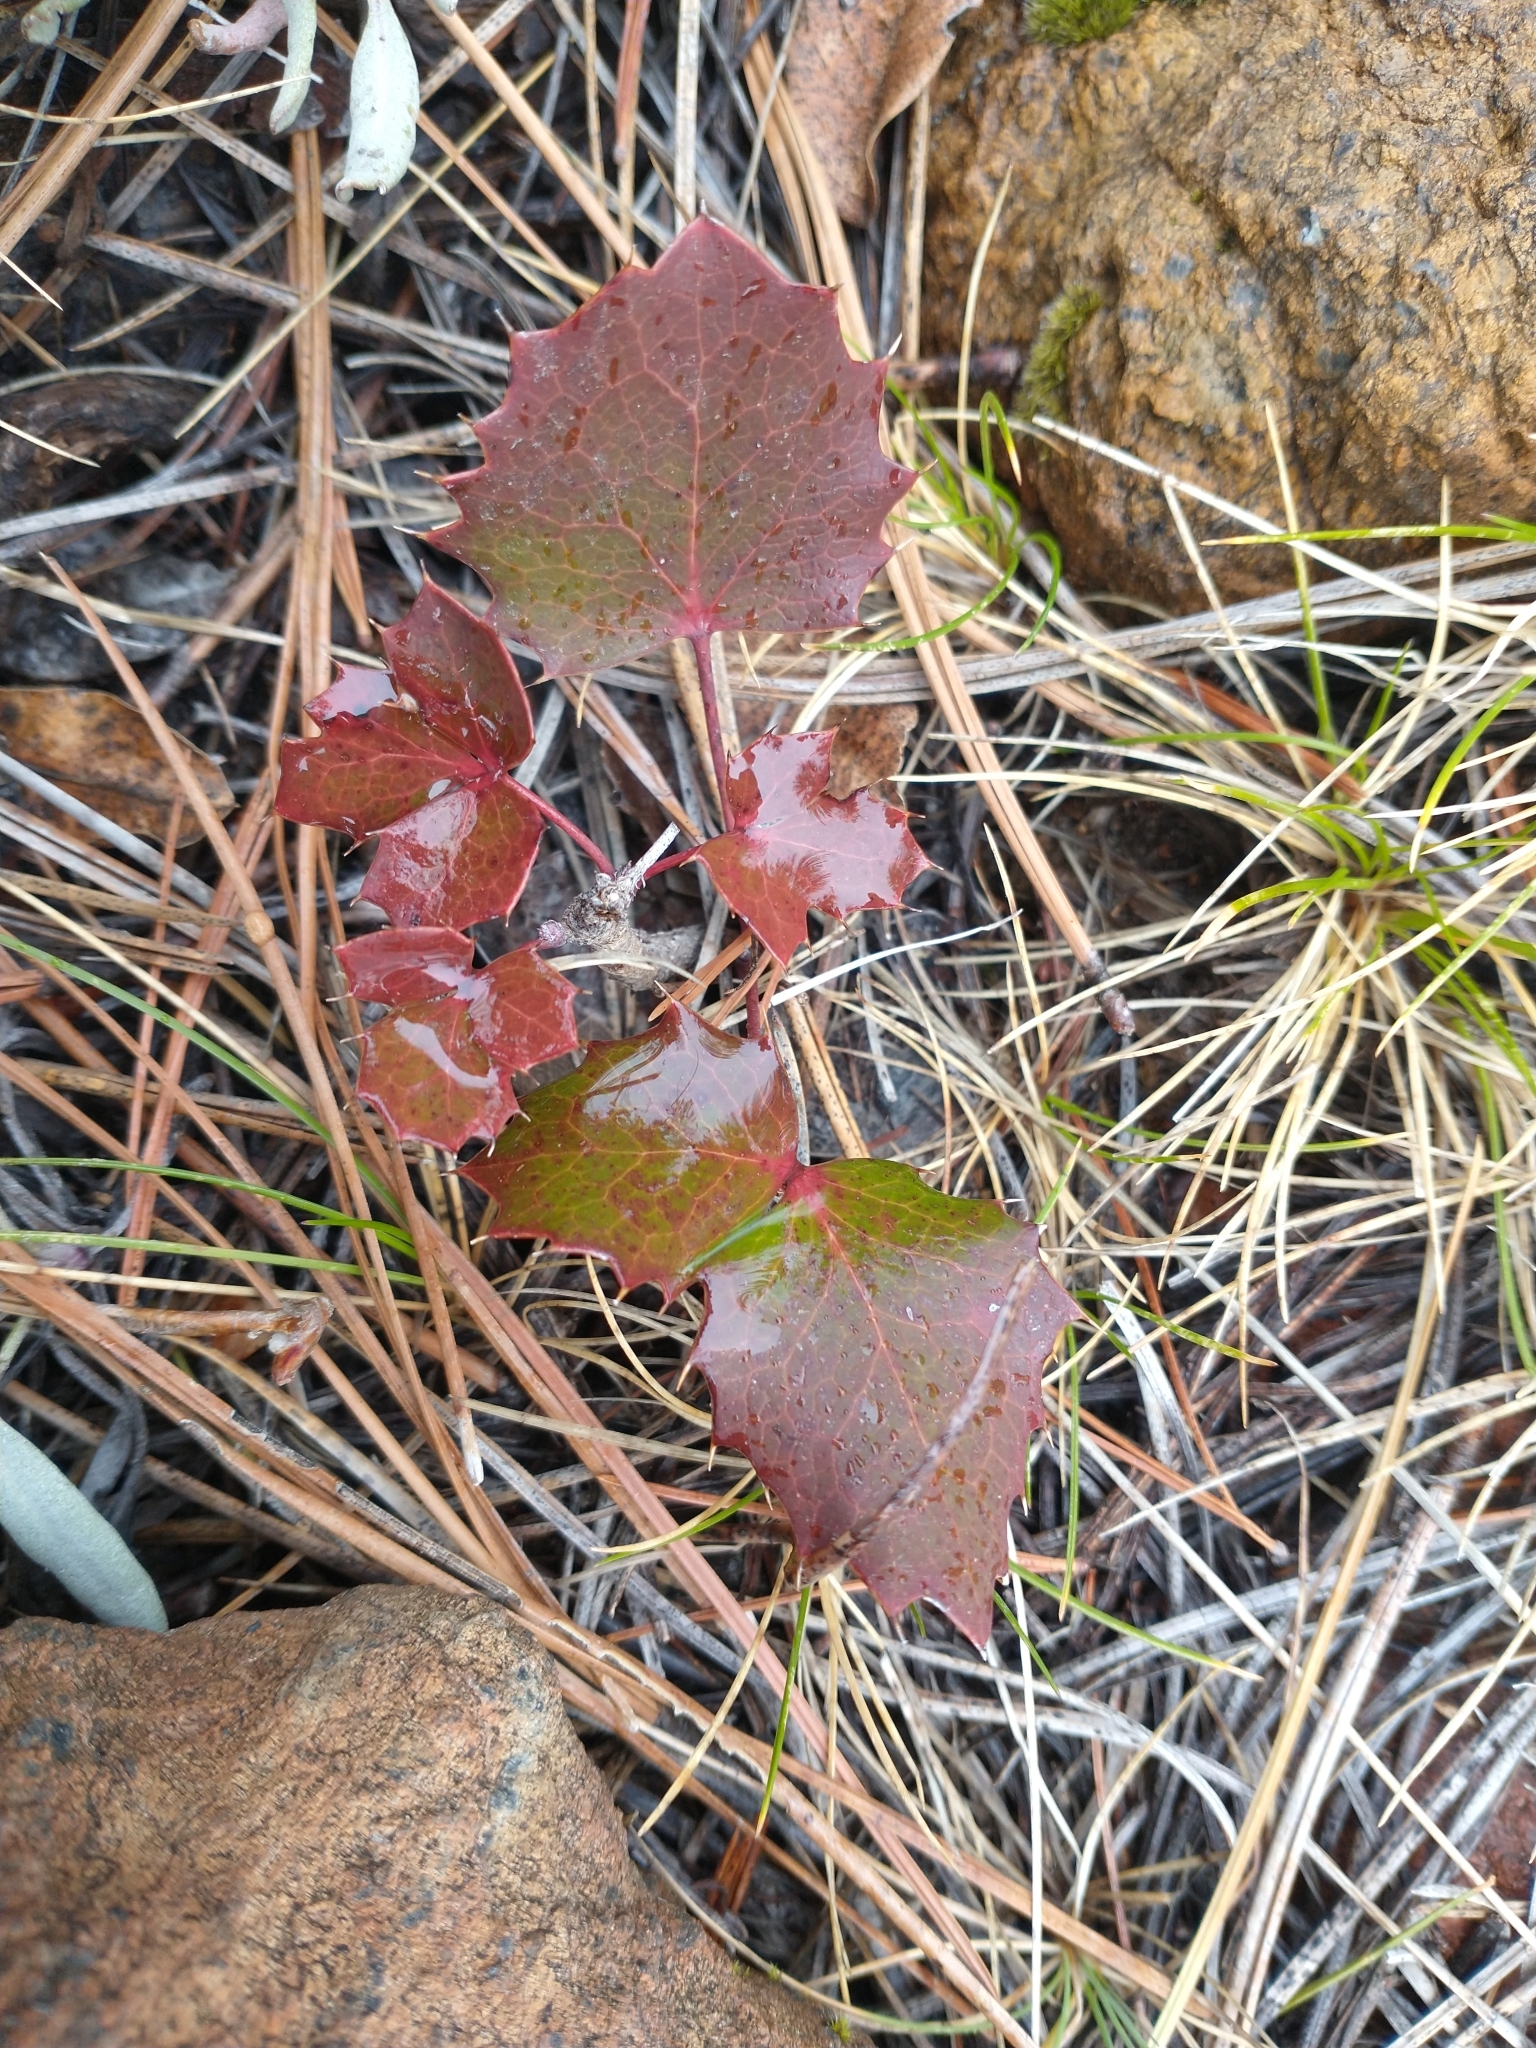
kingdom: Plantae
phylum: Tracheophyta
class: Magnoliopsida
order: Ranunculales
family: Berberidaceae
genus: Mahonia
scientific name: Mahonia repens
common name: Creeping oregon-grape
